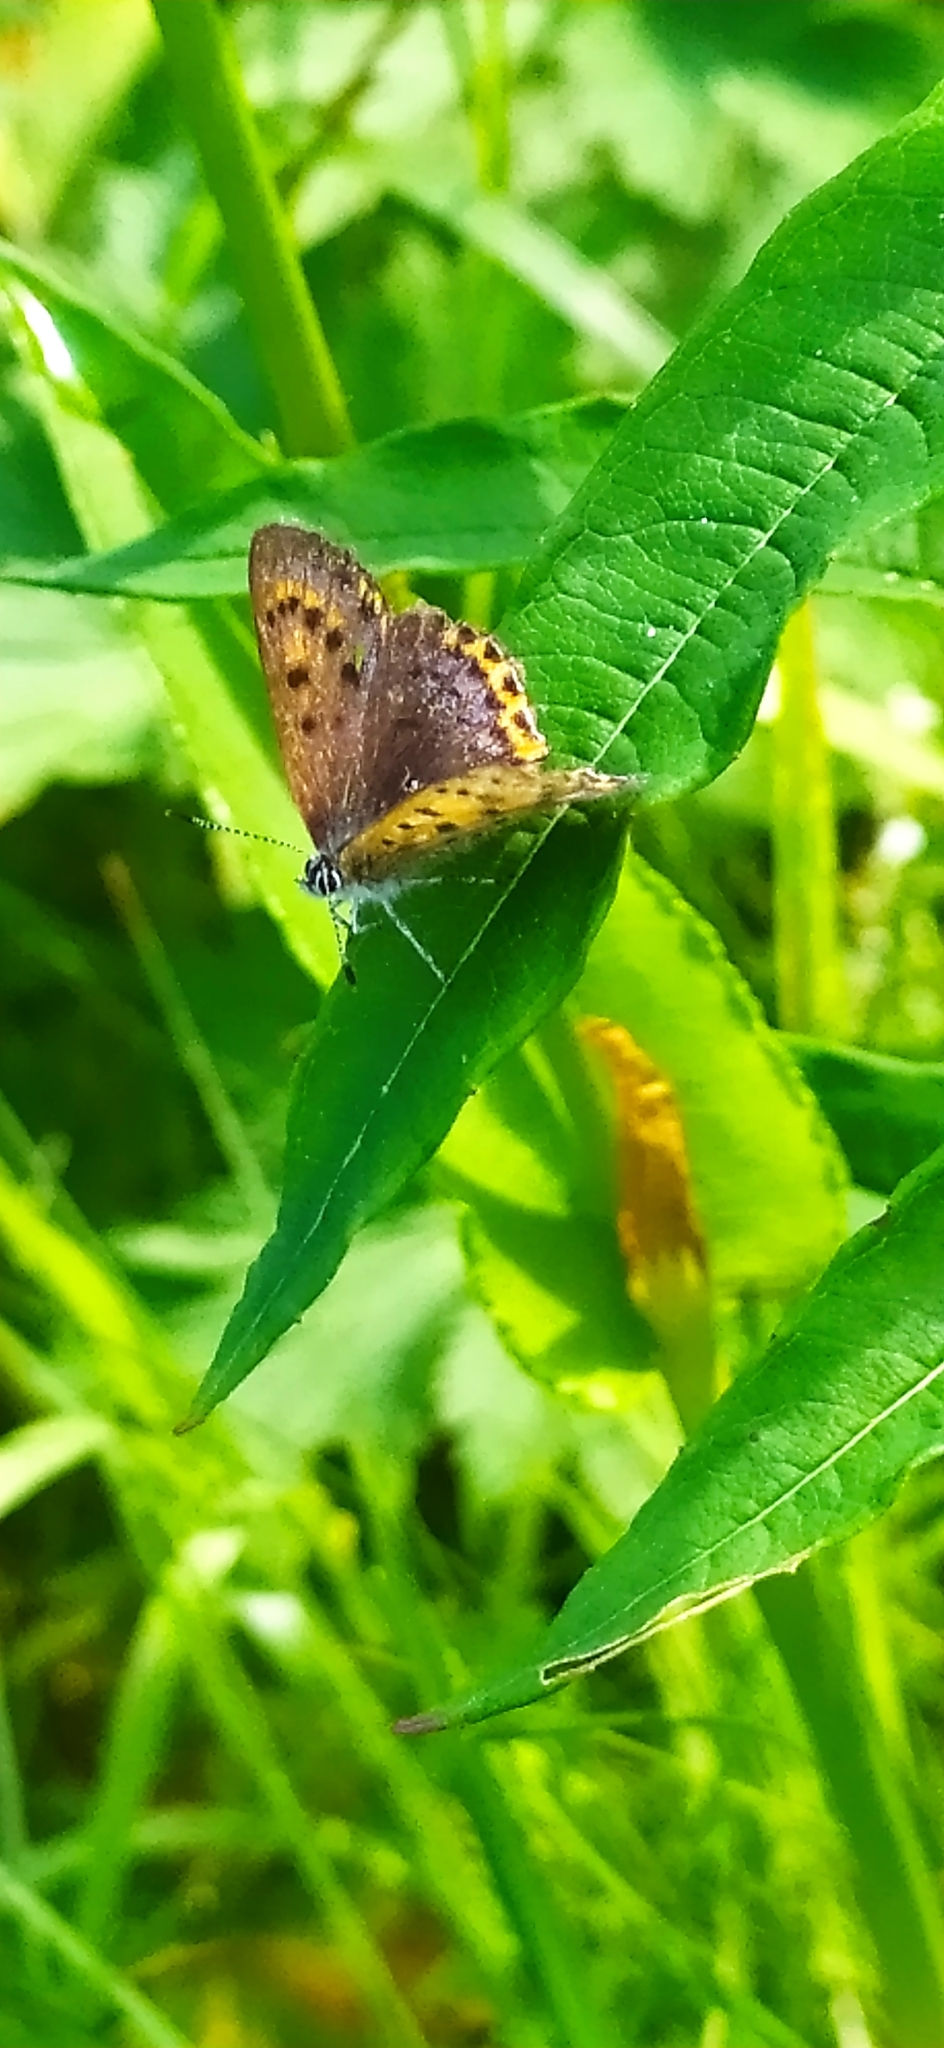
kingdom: Animalia
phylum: Arthropoda
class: Insecta
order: Lepidoptera
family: Lycaenidae
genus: Helleia
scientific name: Helleia helle
